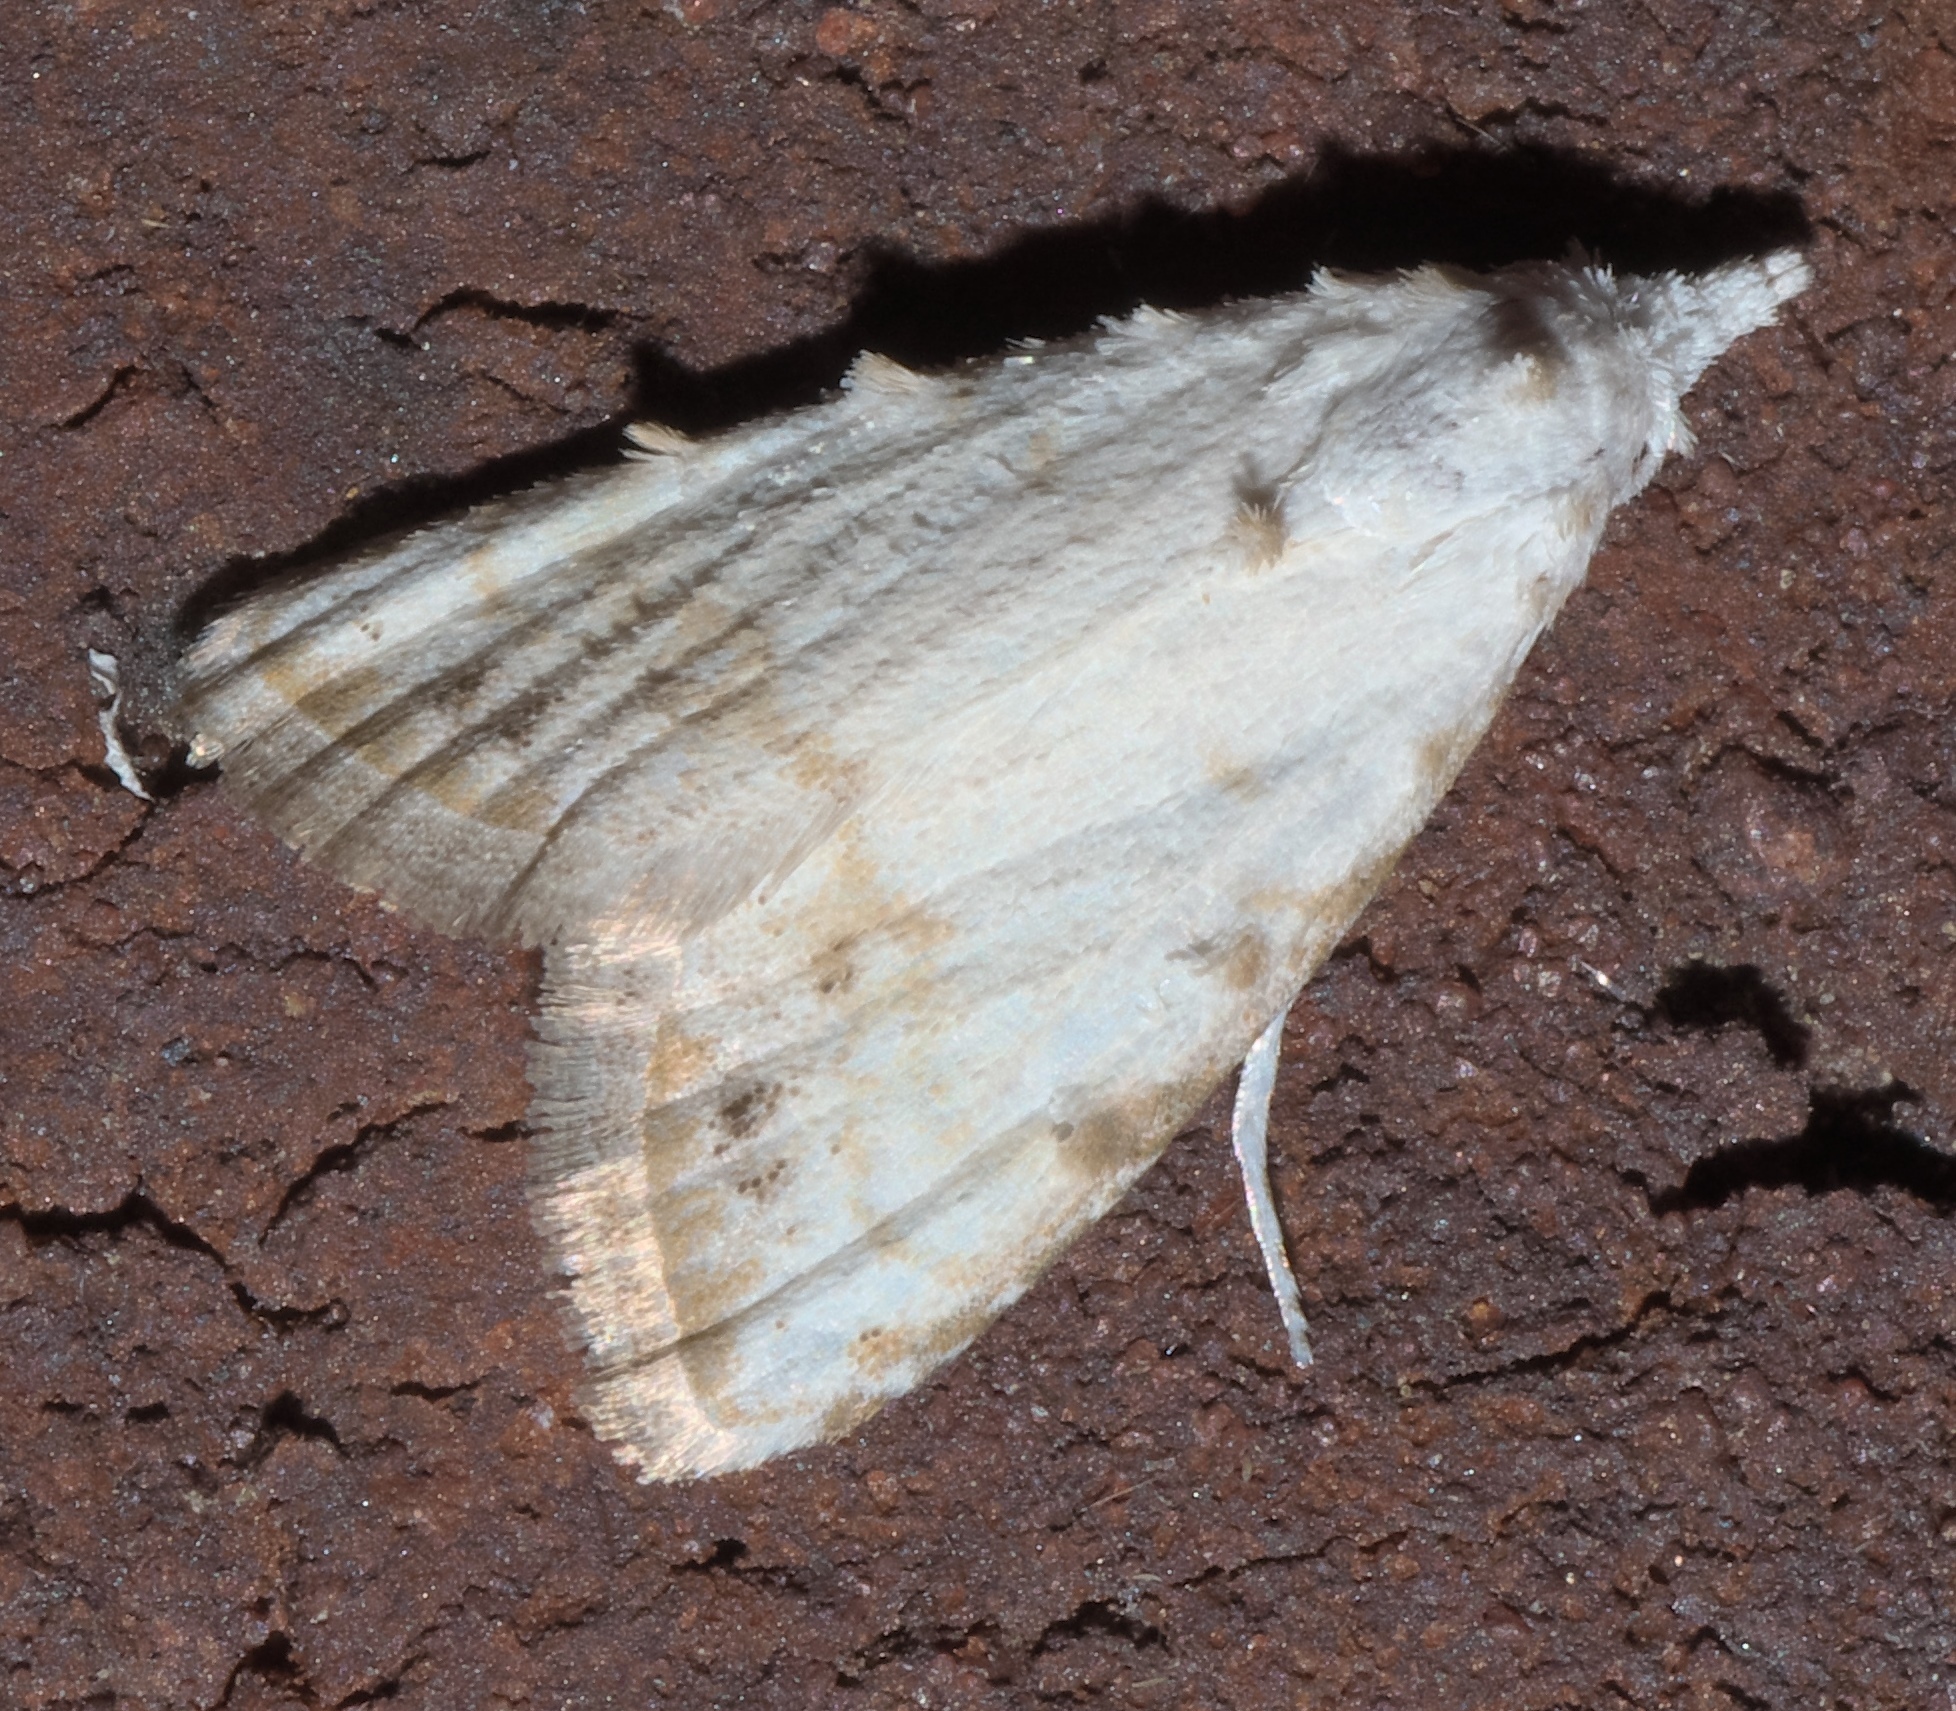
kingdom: Animalia
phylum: Arthropoda
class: Insecta
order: Lepidoptera
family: Nolidae
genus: Nola
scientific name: Nola cereella
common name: Sorghum webworm moth
